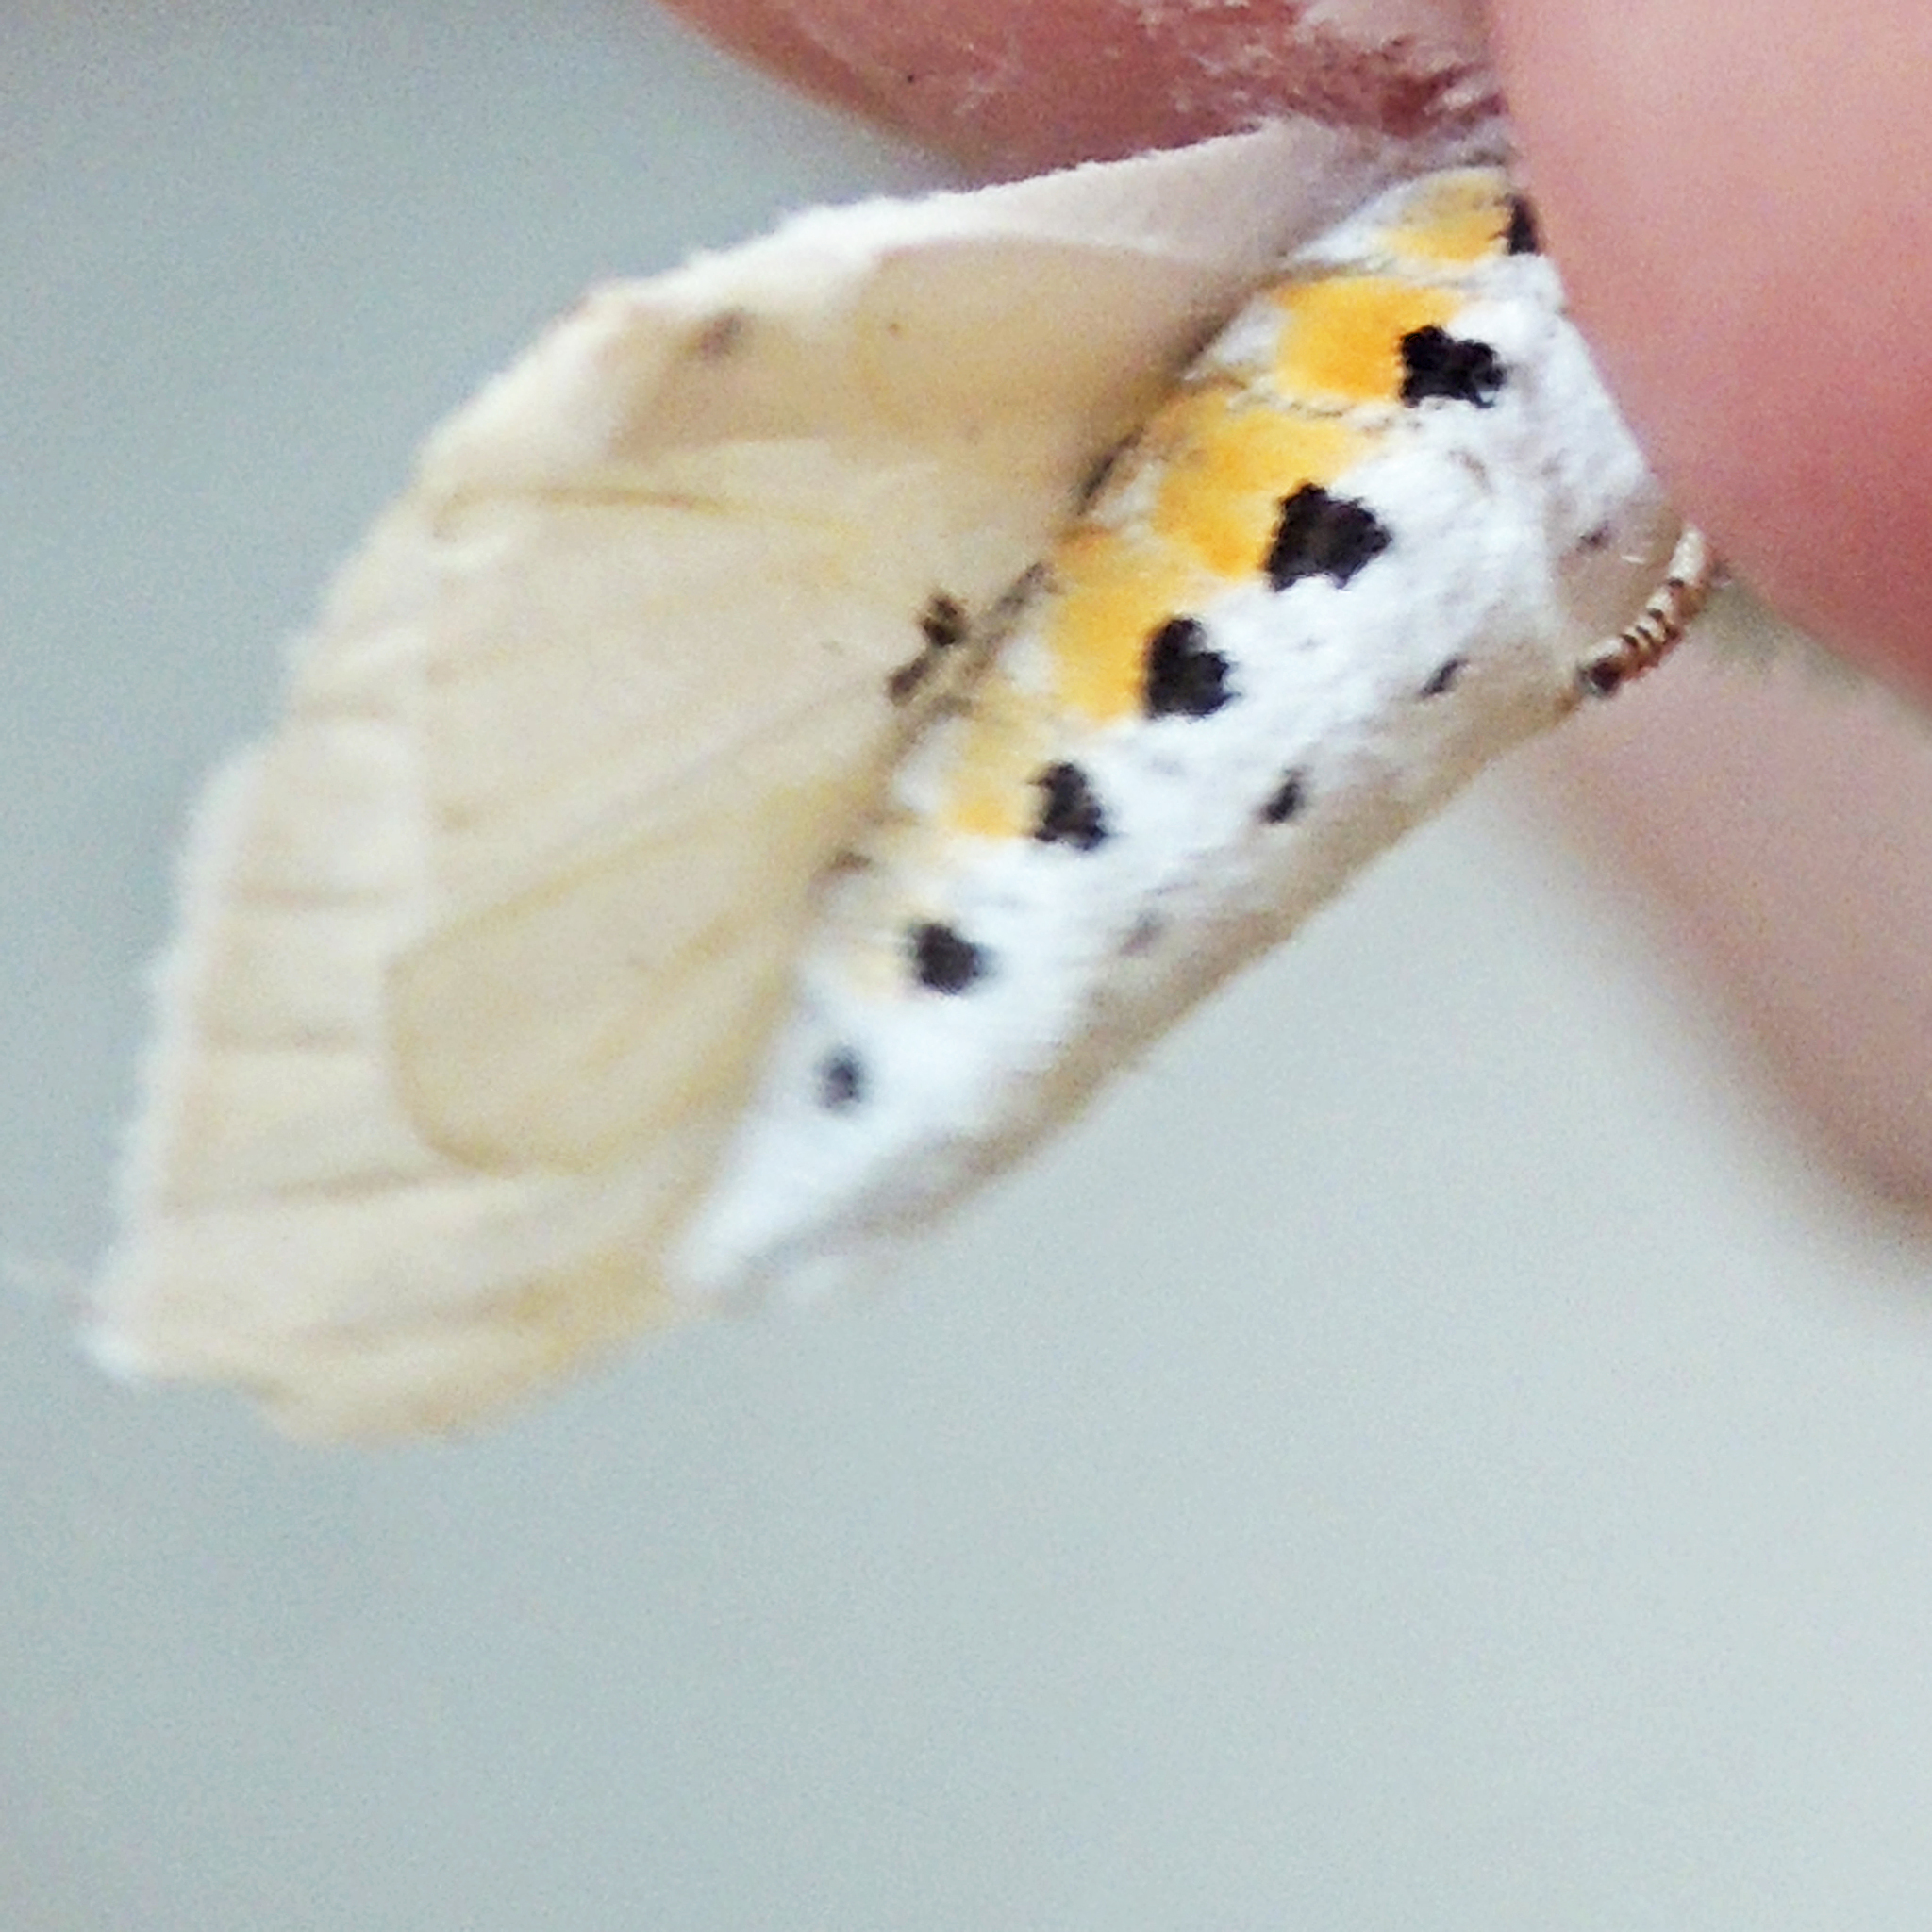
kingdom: Animalia
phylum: Arthropoda
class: Insecta
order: Lepidoptera
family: Erebidae
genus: Spilosoma
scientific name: Spilosoma virginica
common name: Virginia tiger moth
